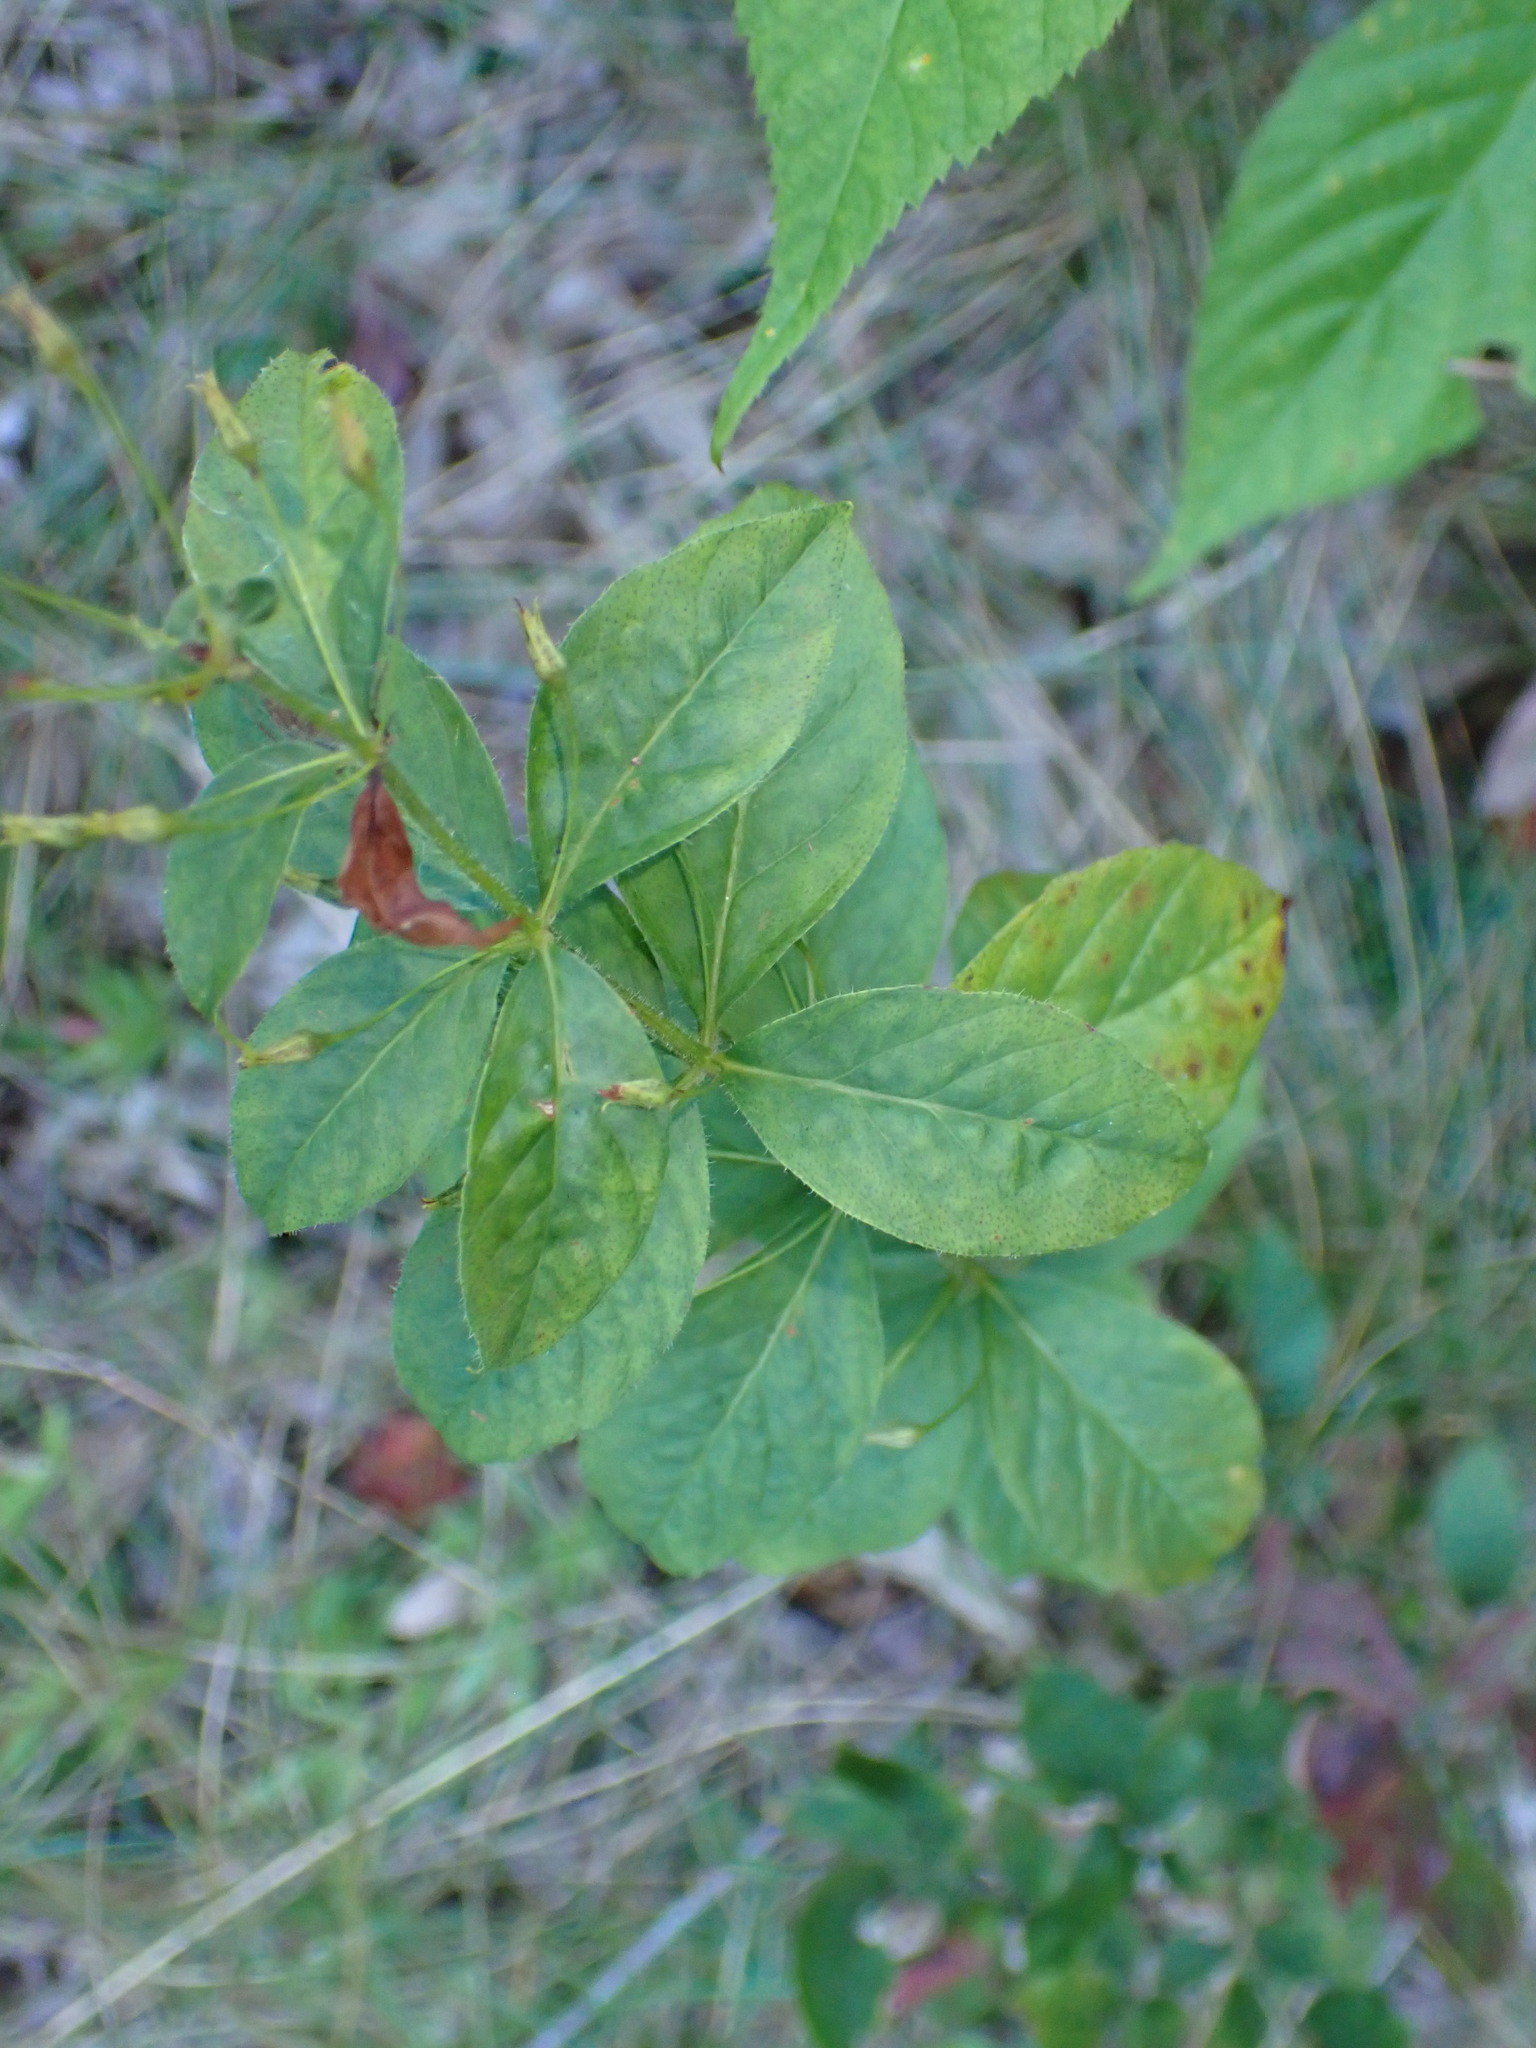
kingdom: Plantae
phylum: Tracheophyta
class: Magnoliopsida
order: Ericales
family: Primulaceae
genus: Lysimachia
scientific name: Lysimachia quadrifolia
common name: Whorled loosestrife
